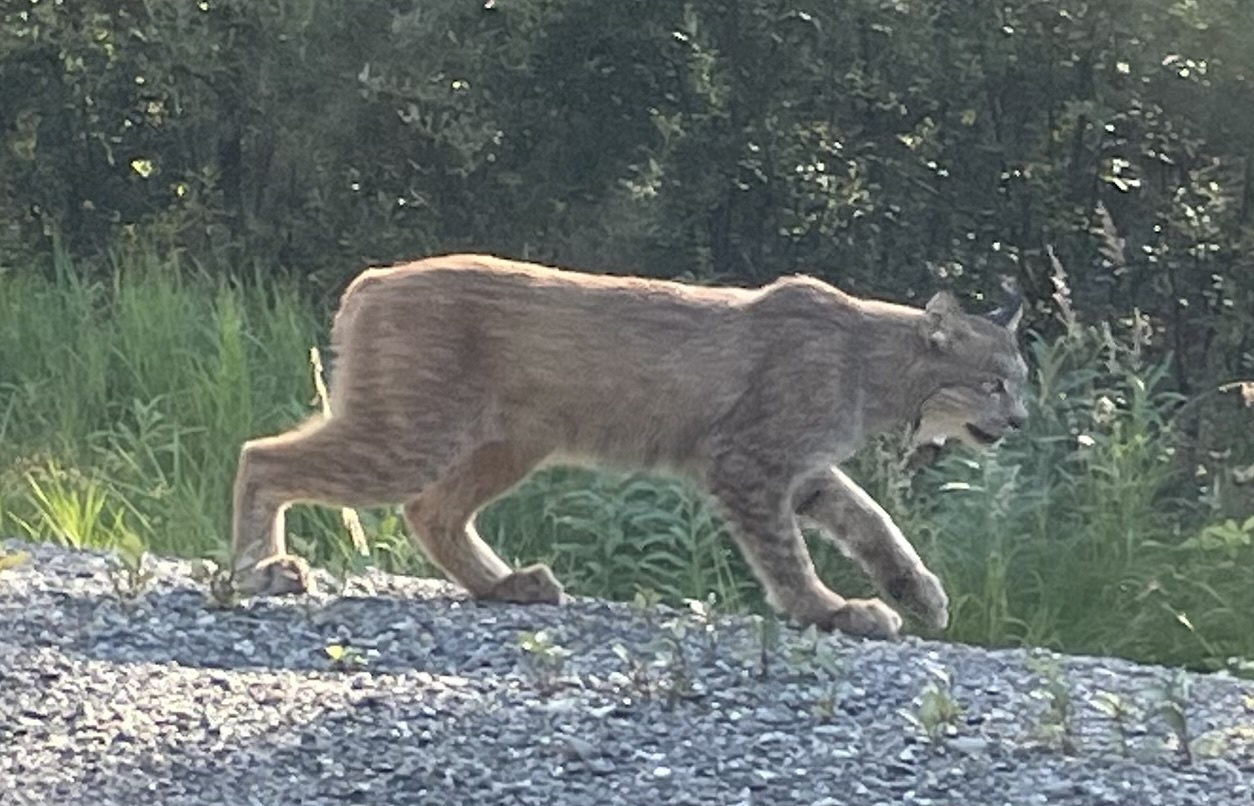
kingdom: Animalia
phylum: Chordata
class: Mammalia
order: Carnivora
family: Felidae
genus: Lynx
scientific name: Lynx canadensis
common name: Canadian lynx
